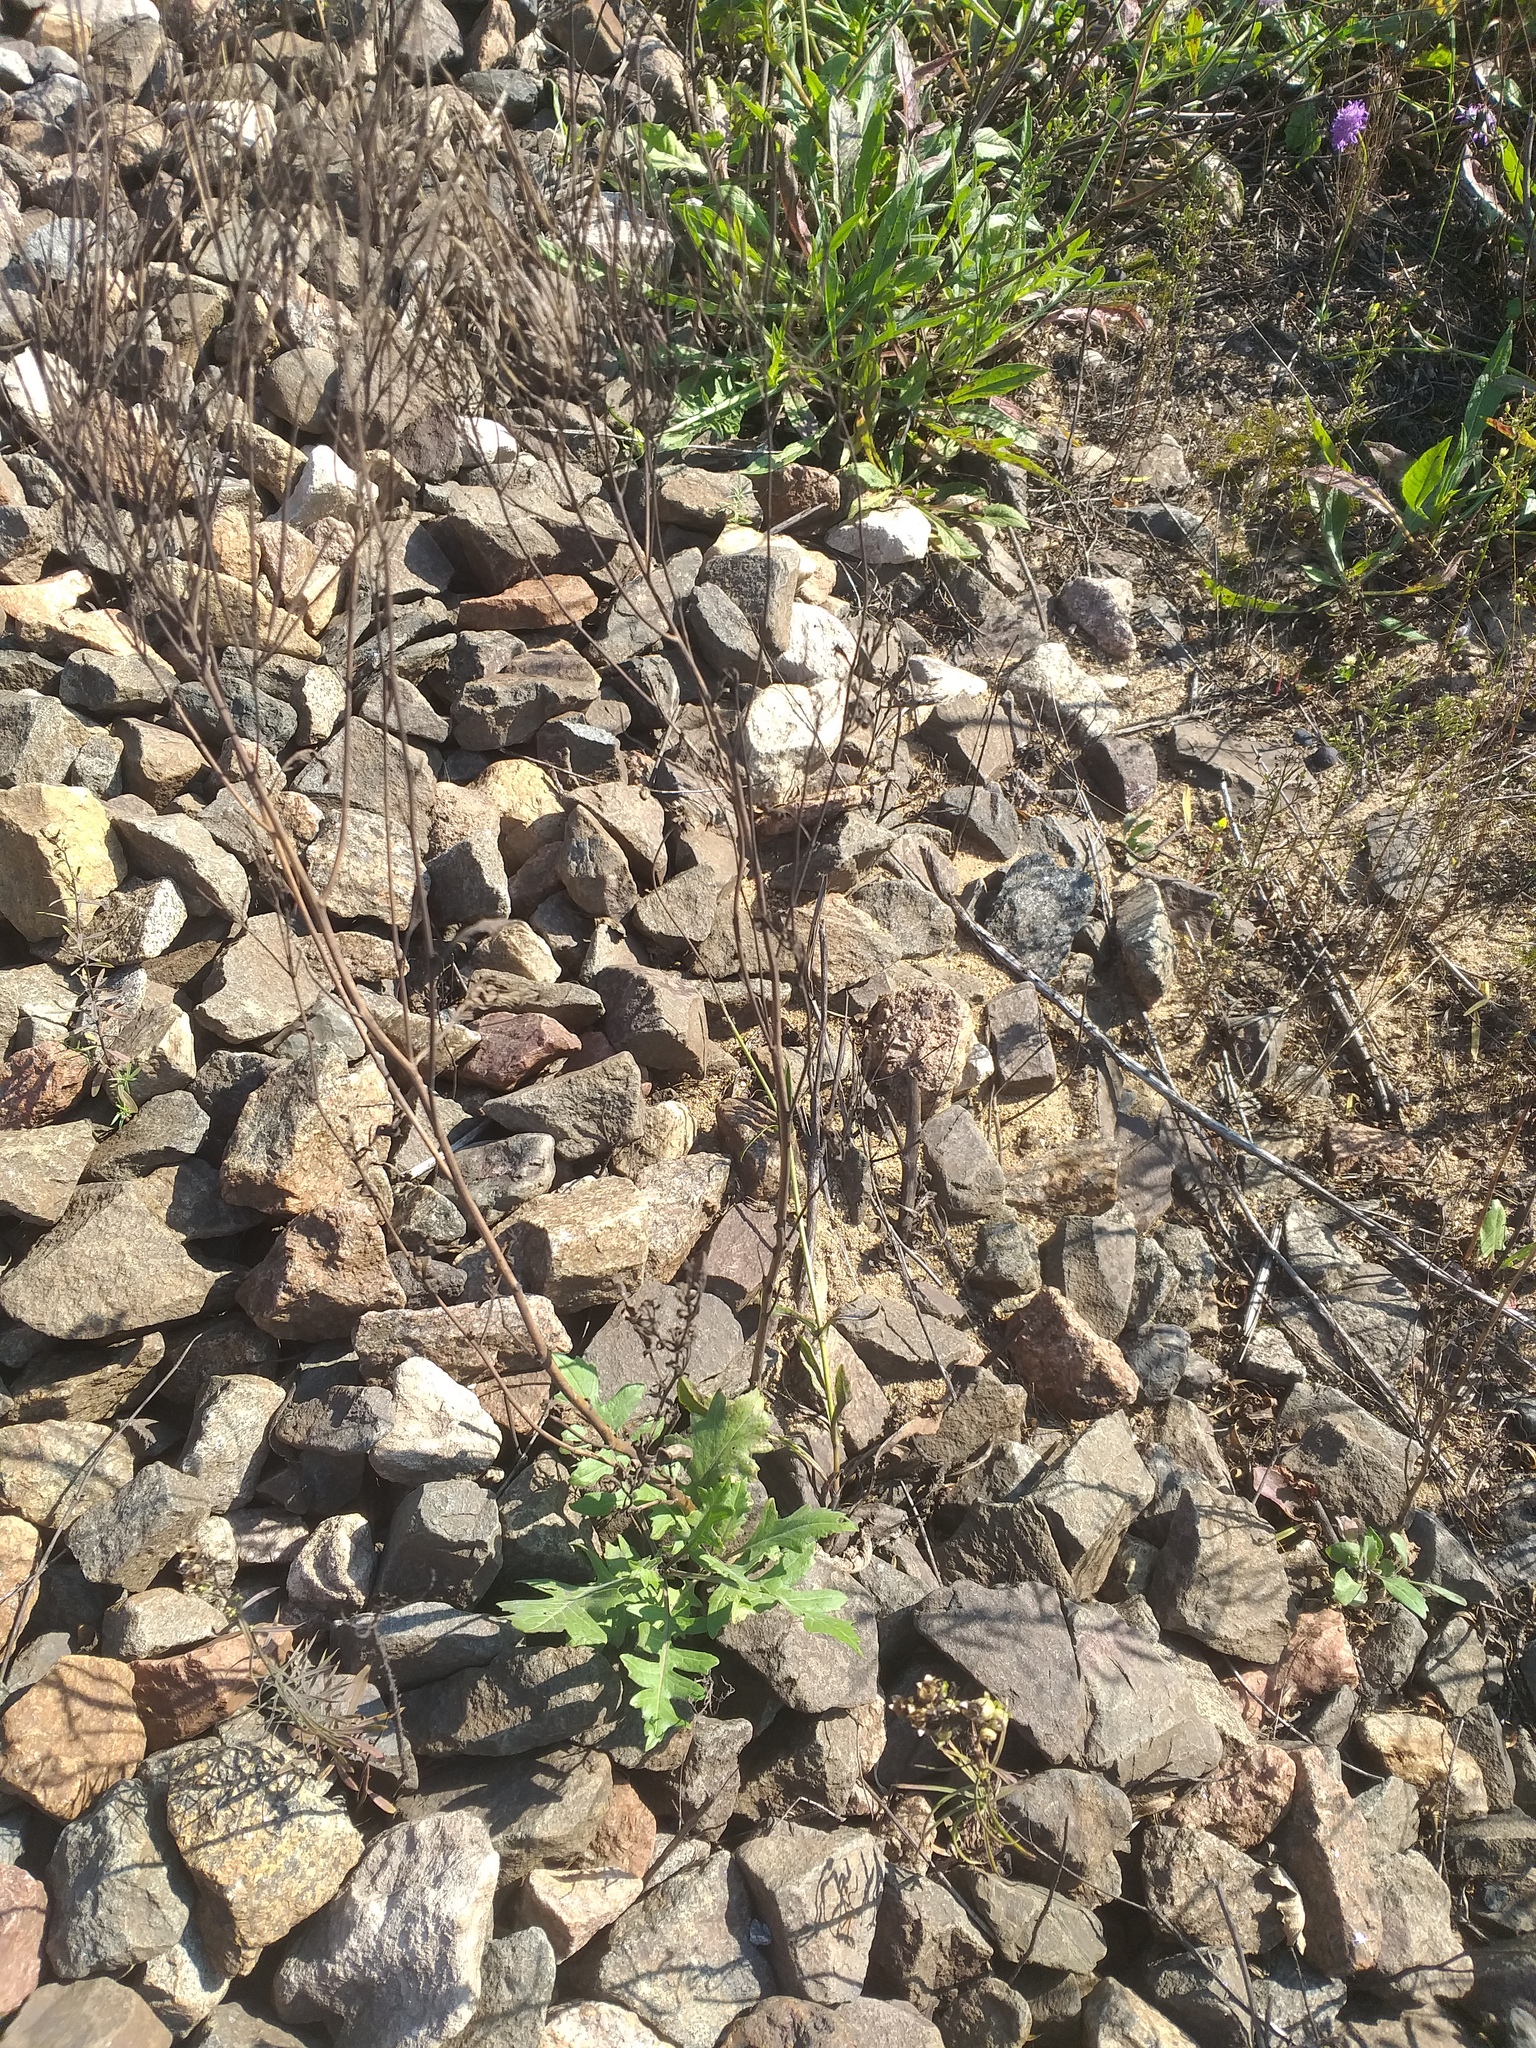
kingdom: Plantae
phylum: Tracheophyta
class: Magnoliopsida
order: Brassicales
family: Brassicaceae
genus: Sisymbrium
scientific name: Sisymbrium volgense
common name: Russian mustard
